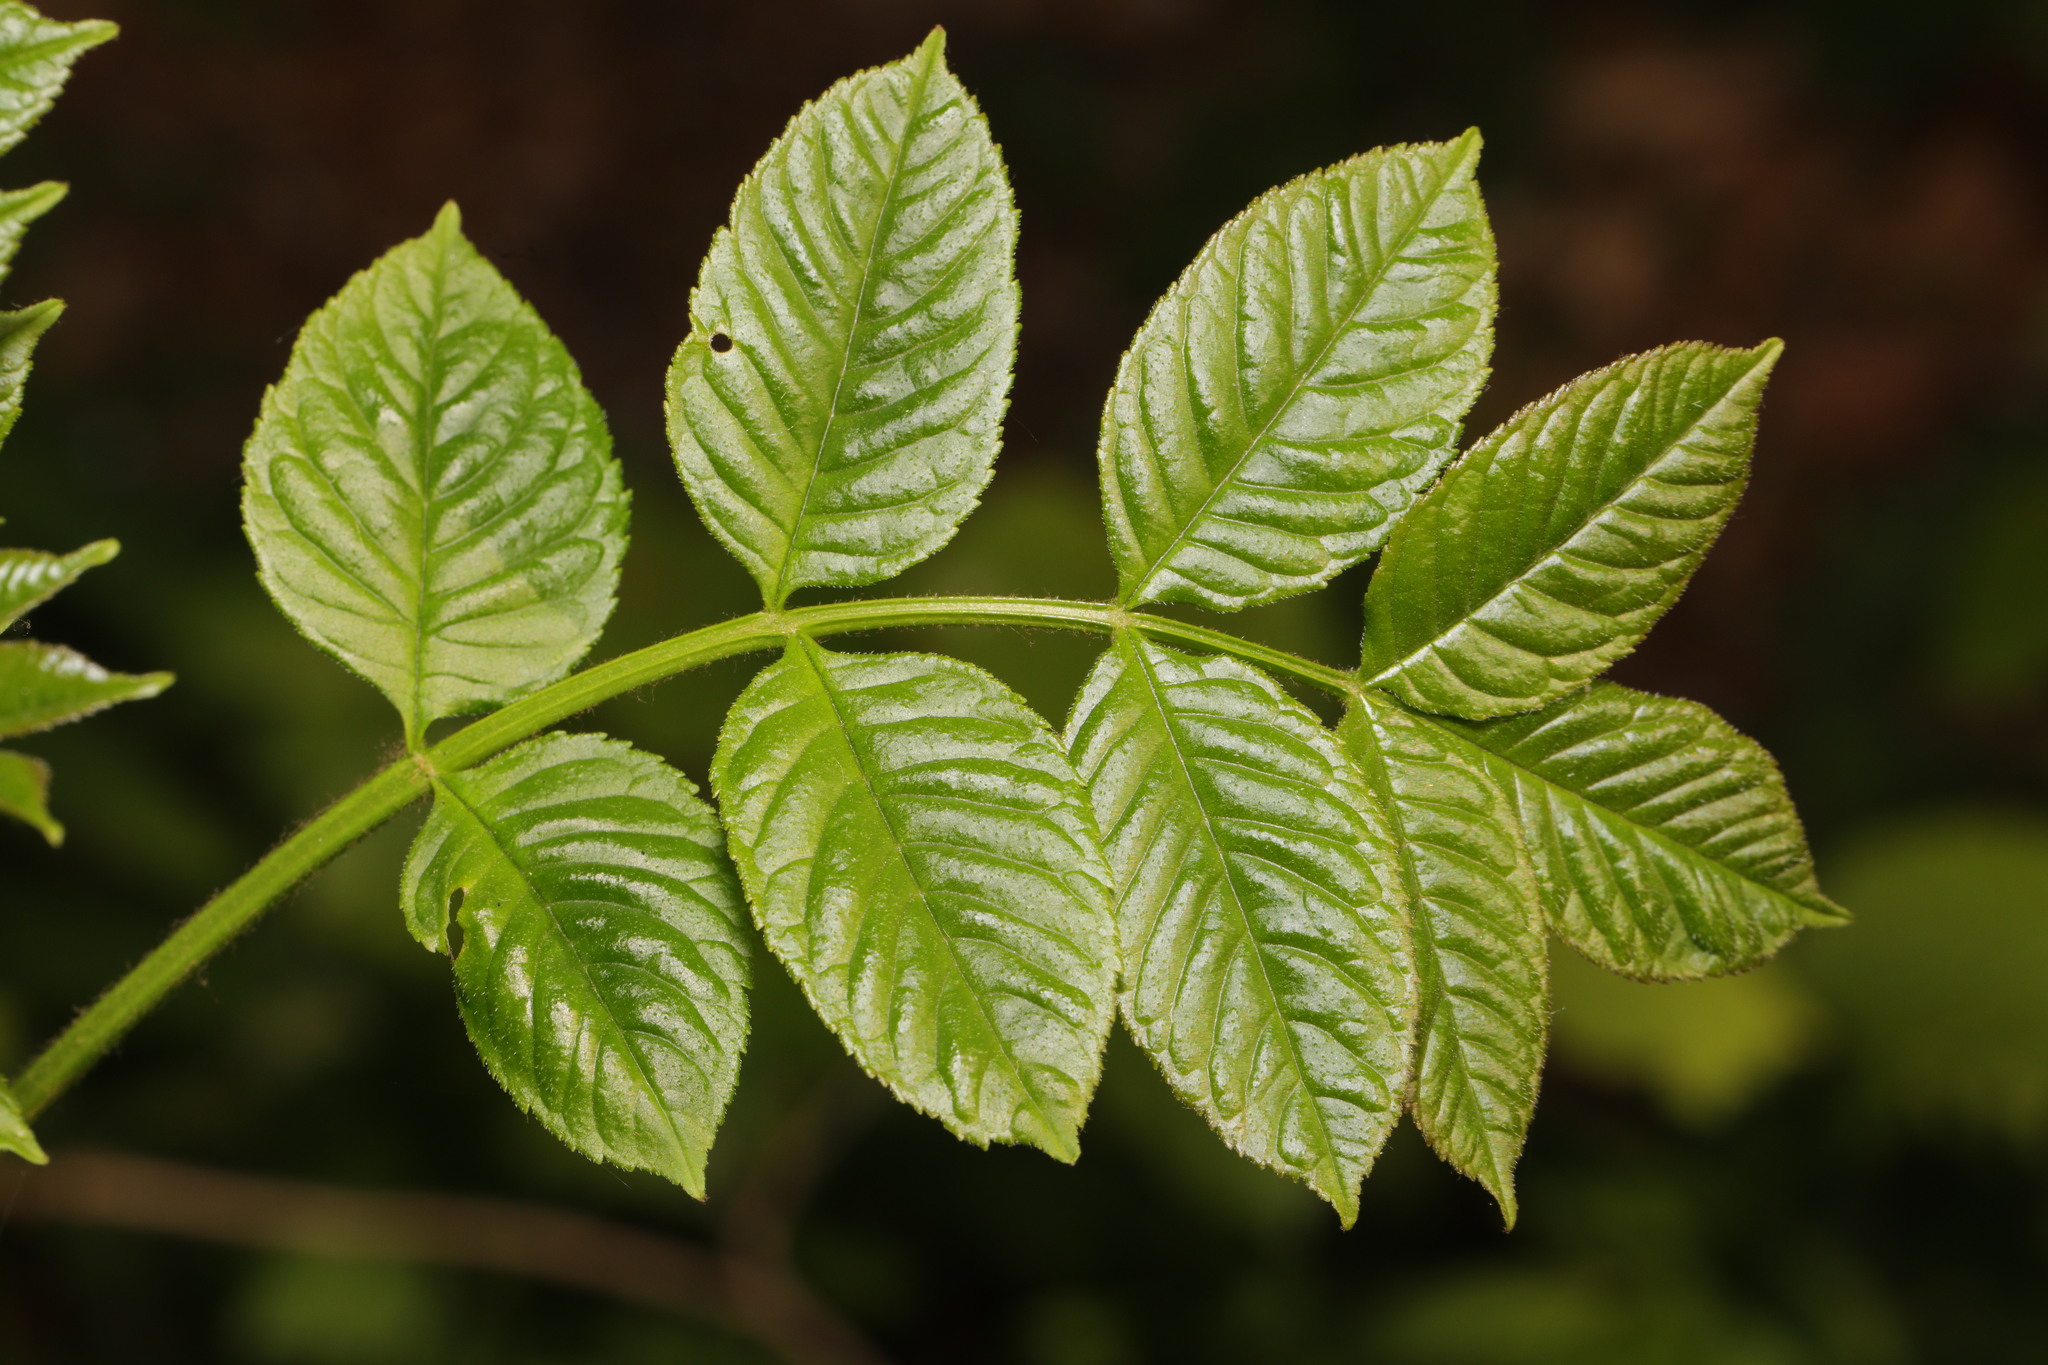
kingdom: Plantae
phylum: Tracheophyta
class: Magnoliopsida
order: Lamiales
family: Oleaceae
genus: Fraxinus
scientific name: Fraxinus excelsior
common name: European ash
